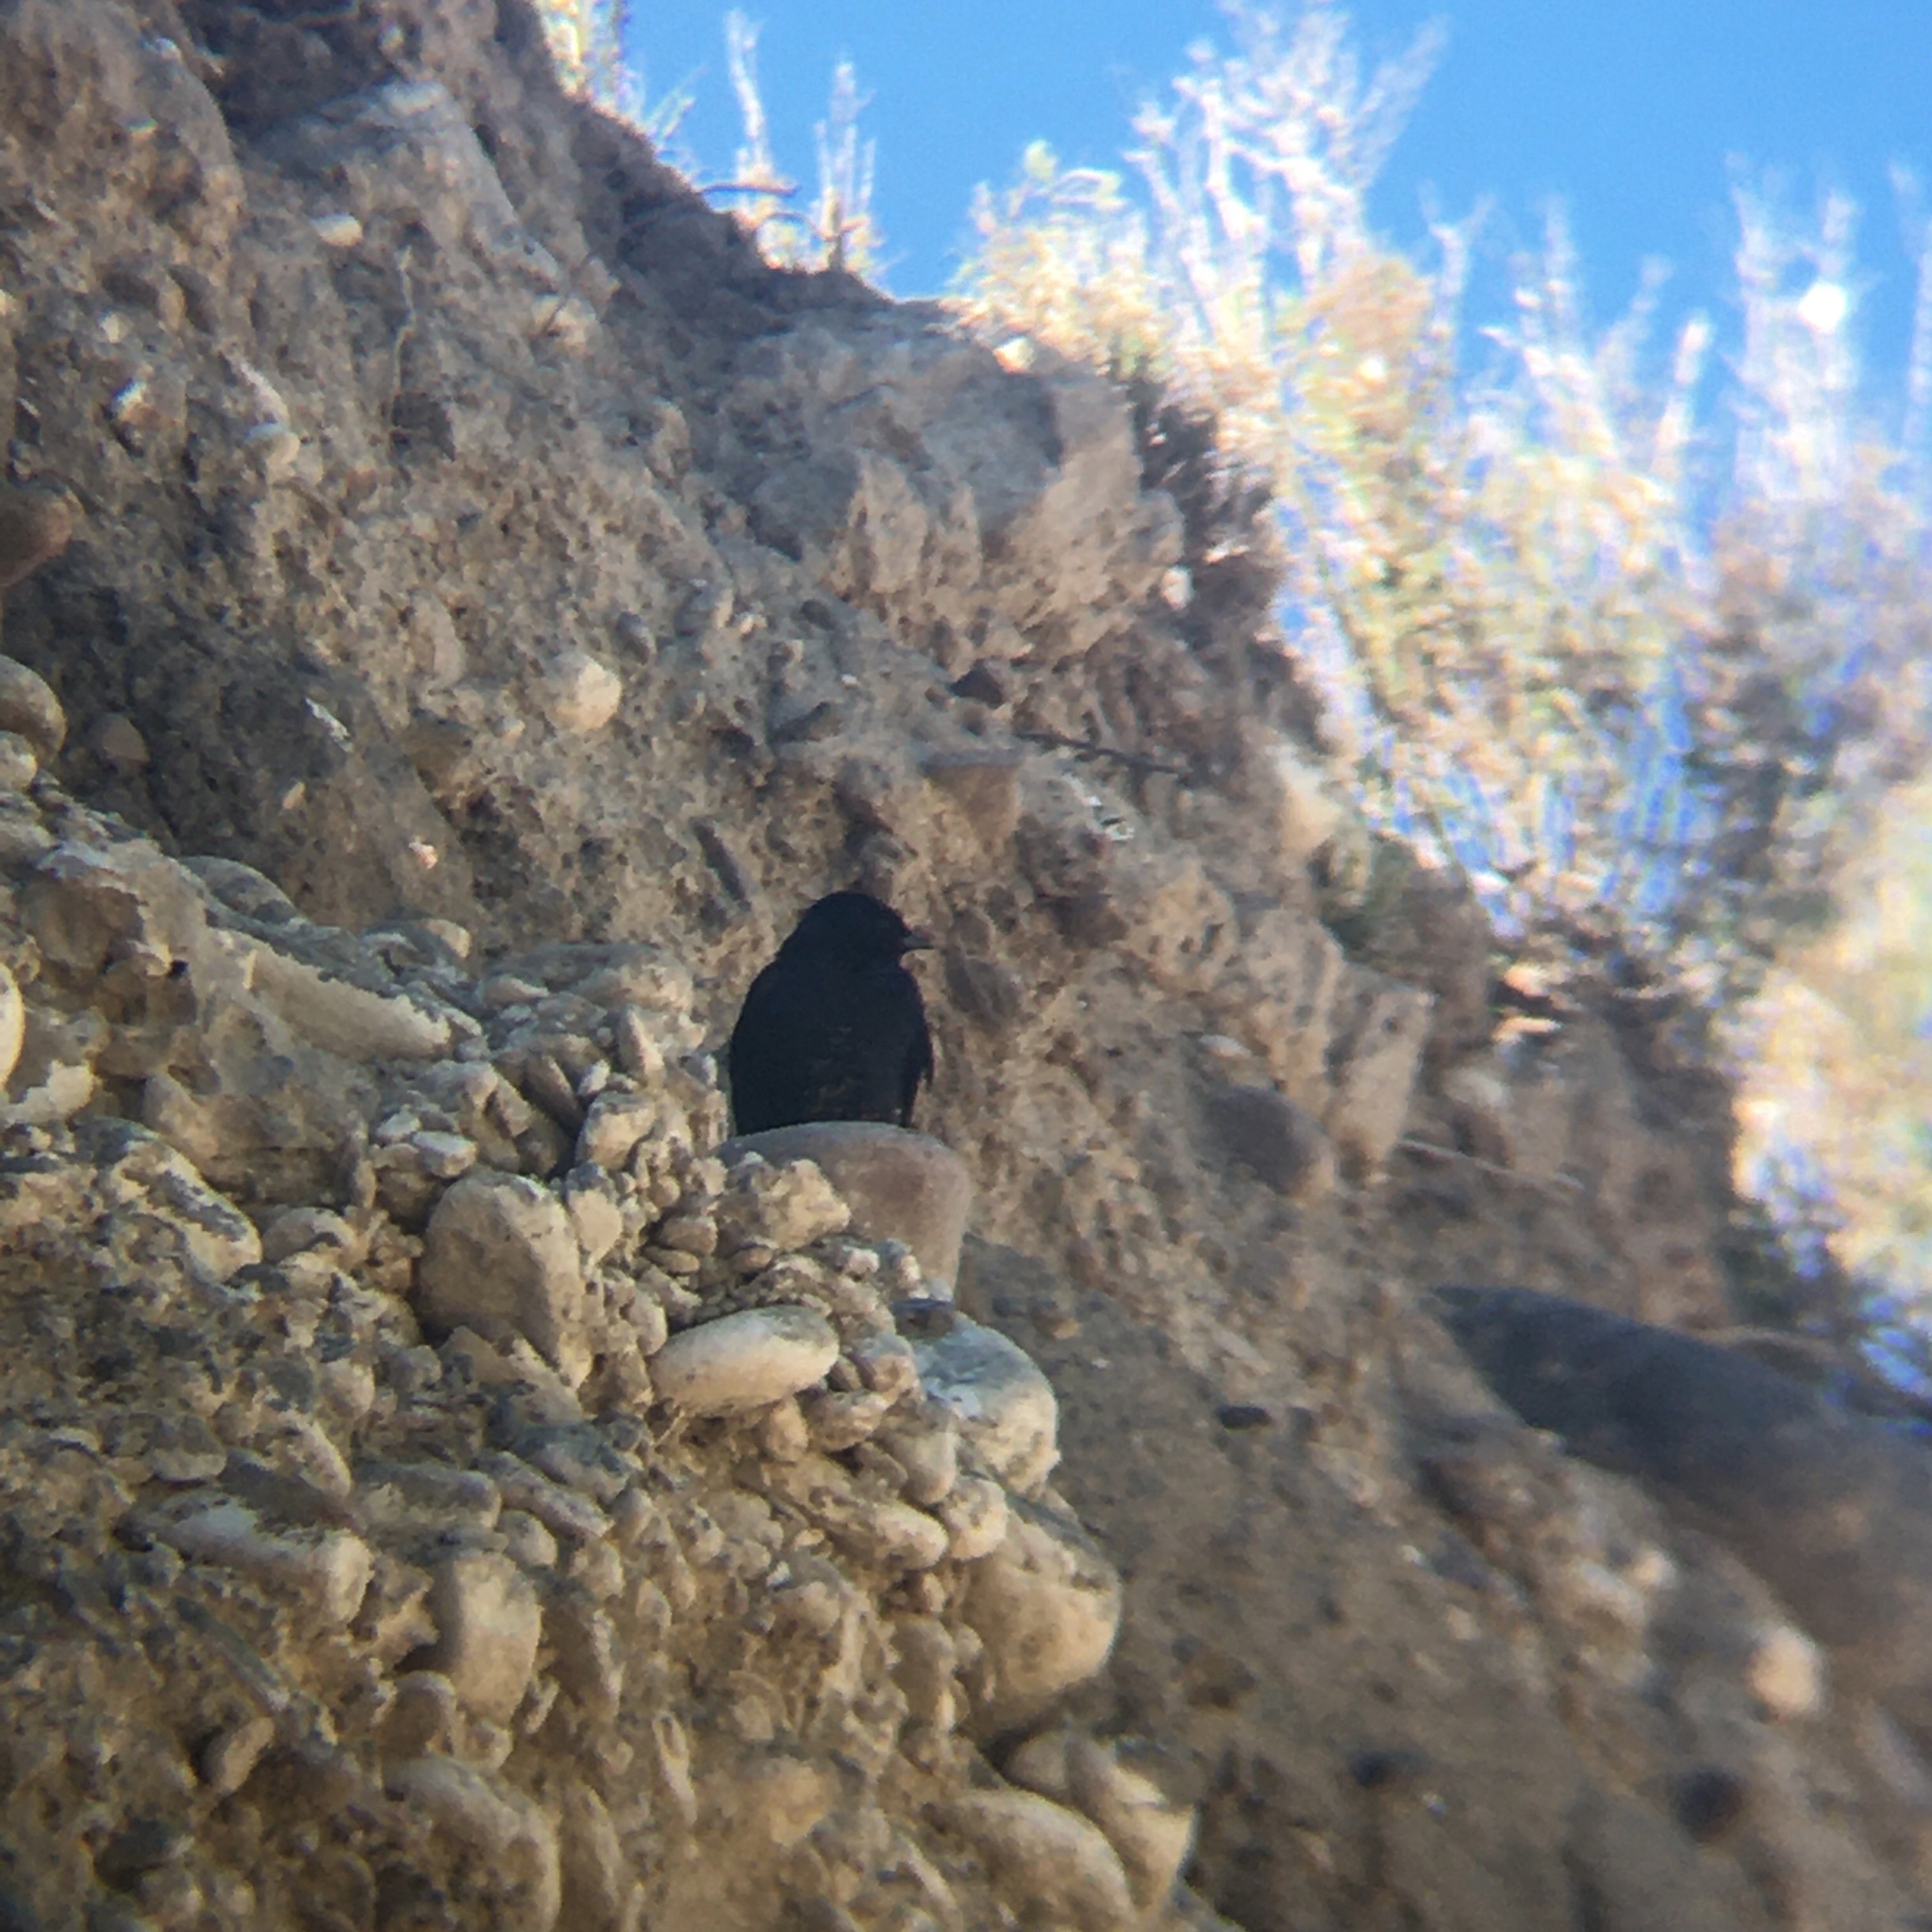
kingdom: Animalia
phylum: Chordata
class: Aves
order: Passeriformes
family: Hirundinidae
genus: Progne
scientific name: Progne elegans
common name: Southern martin
